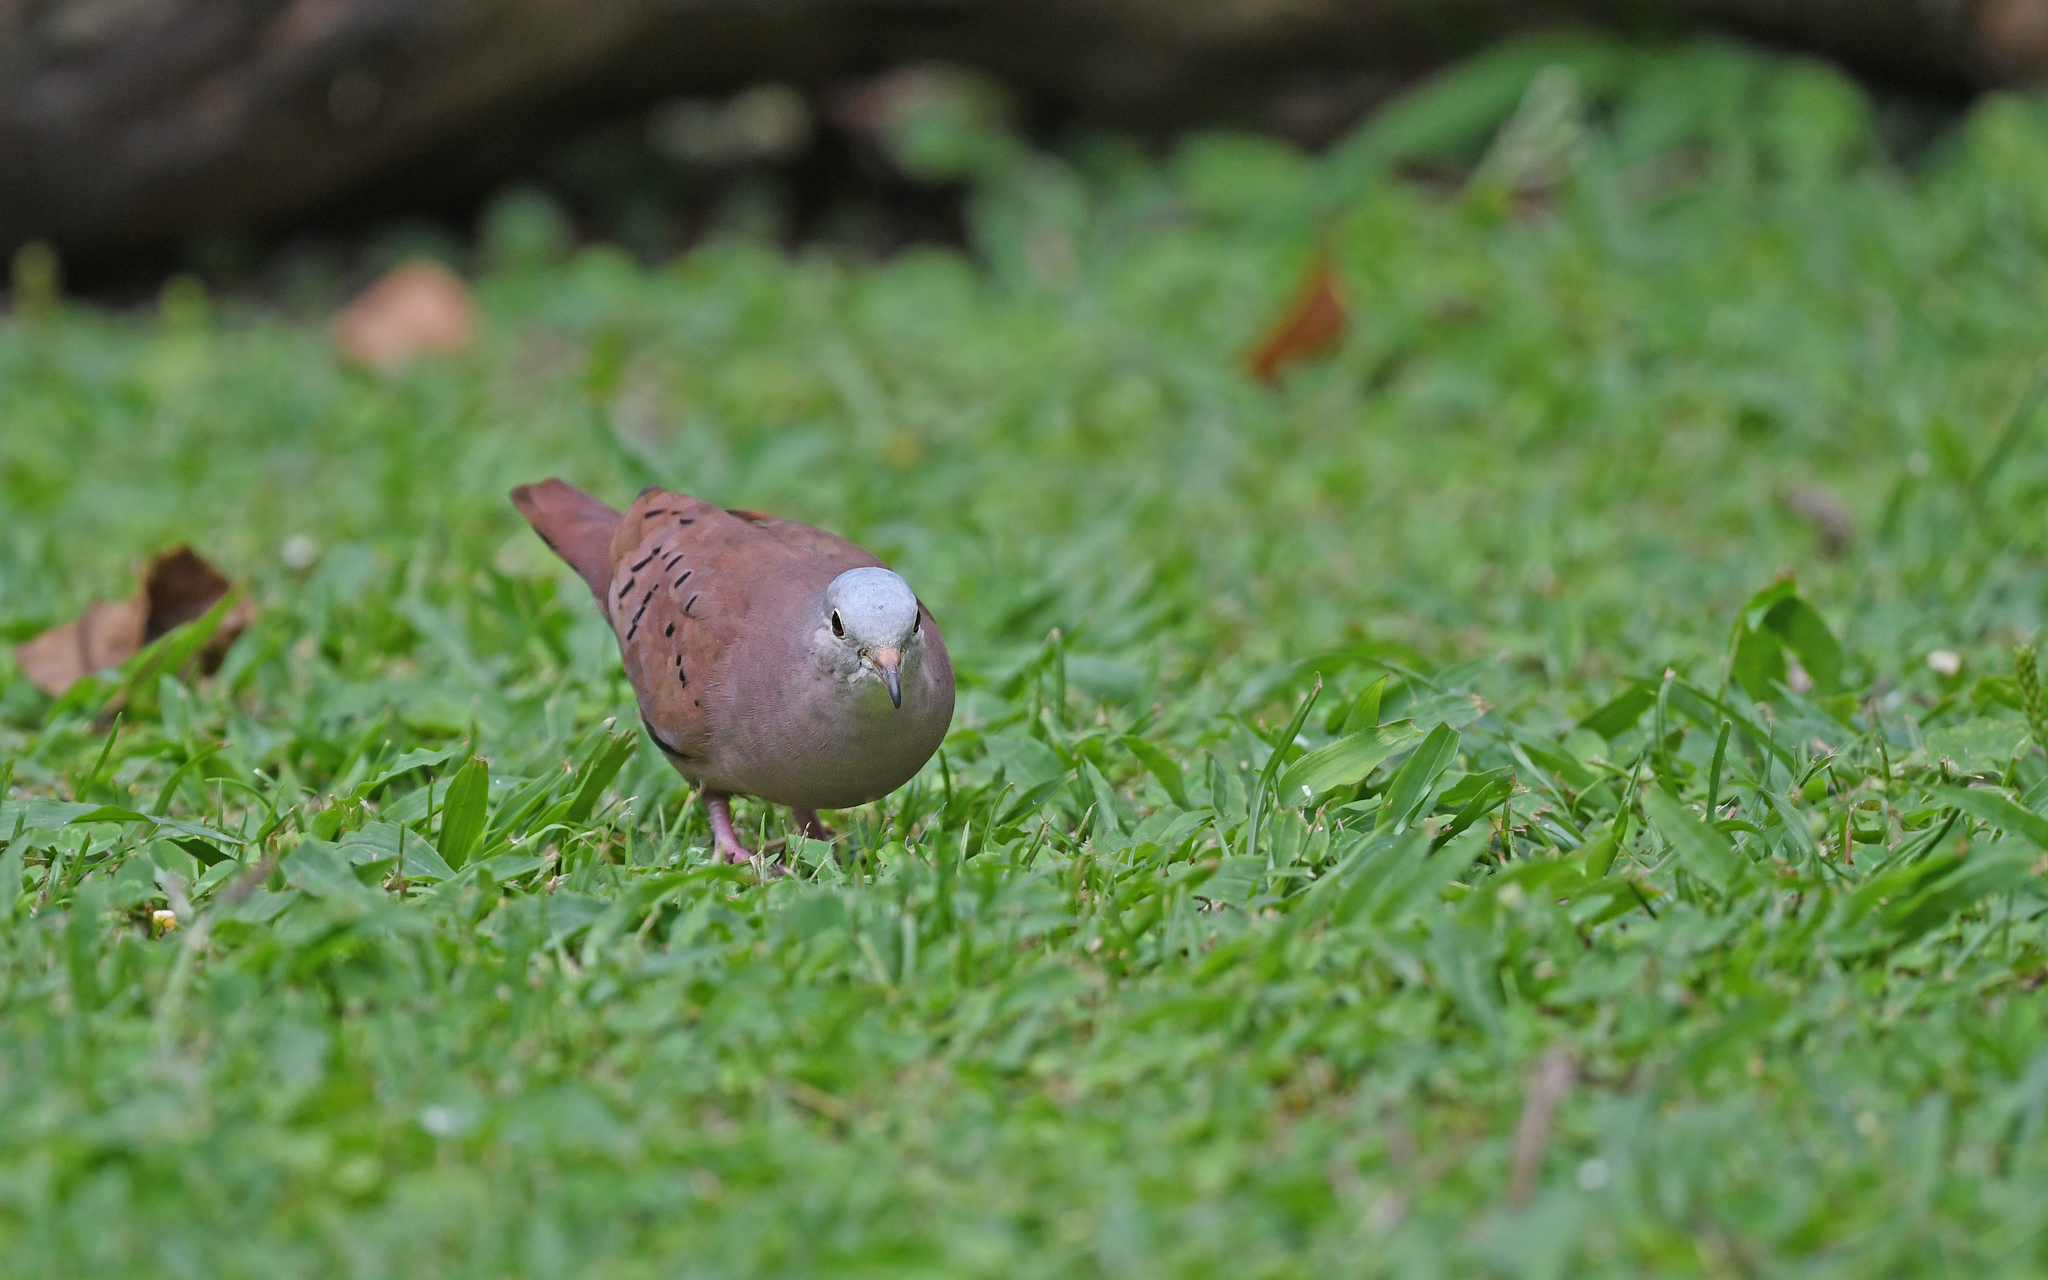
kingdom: Animalia
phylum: Chordata
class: Aves
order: Columbiformes
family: Columbidae
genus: Columbina
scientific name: Columbina talpacoti
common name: Ruddy ground dove
